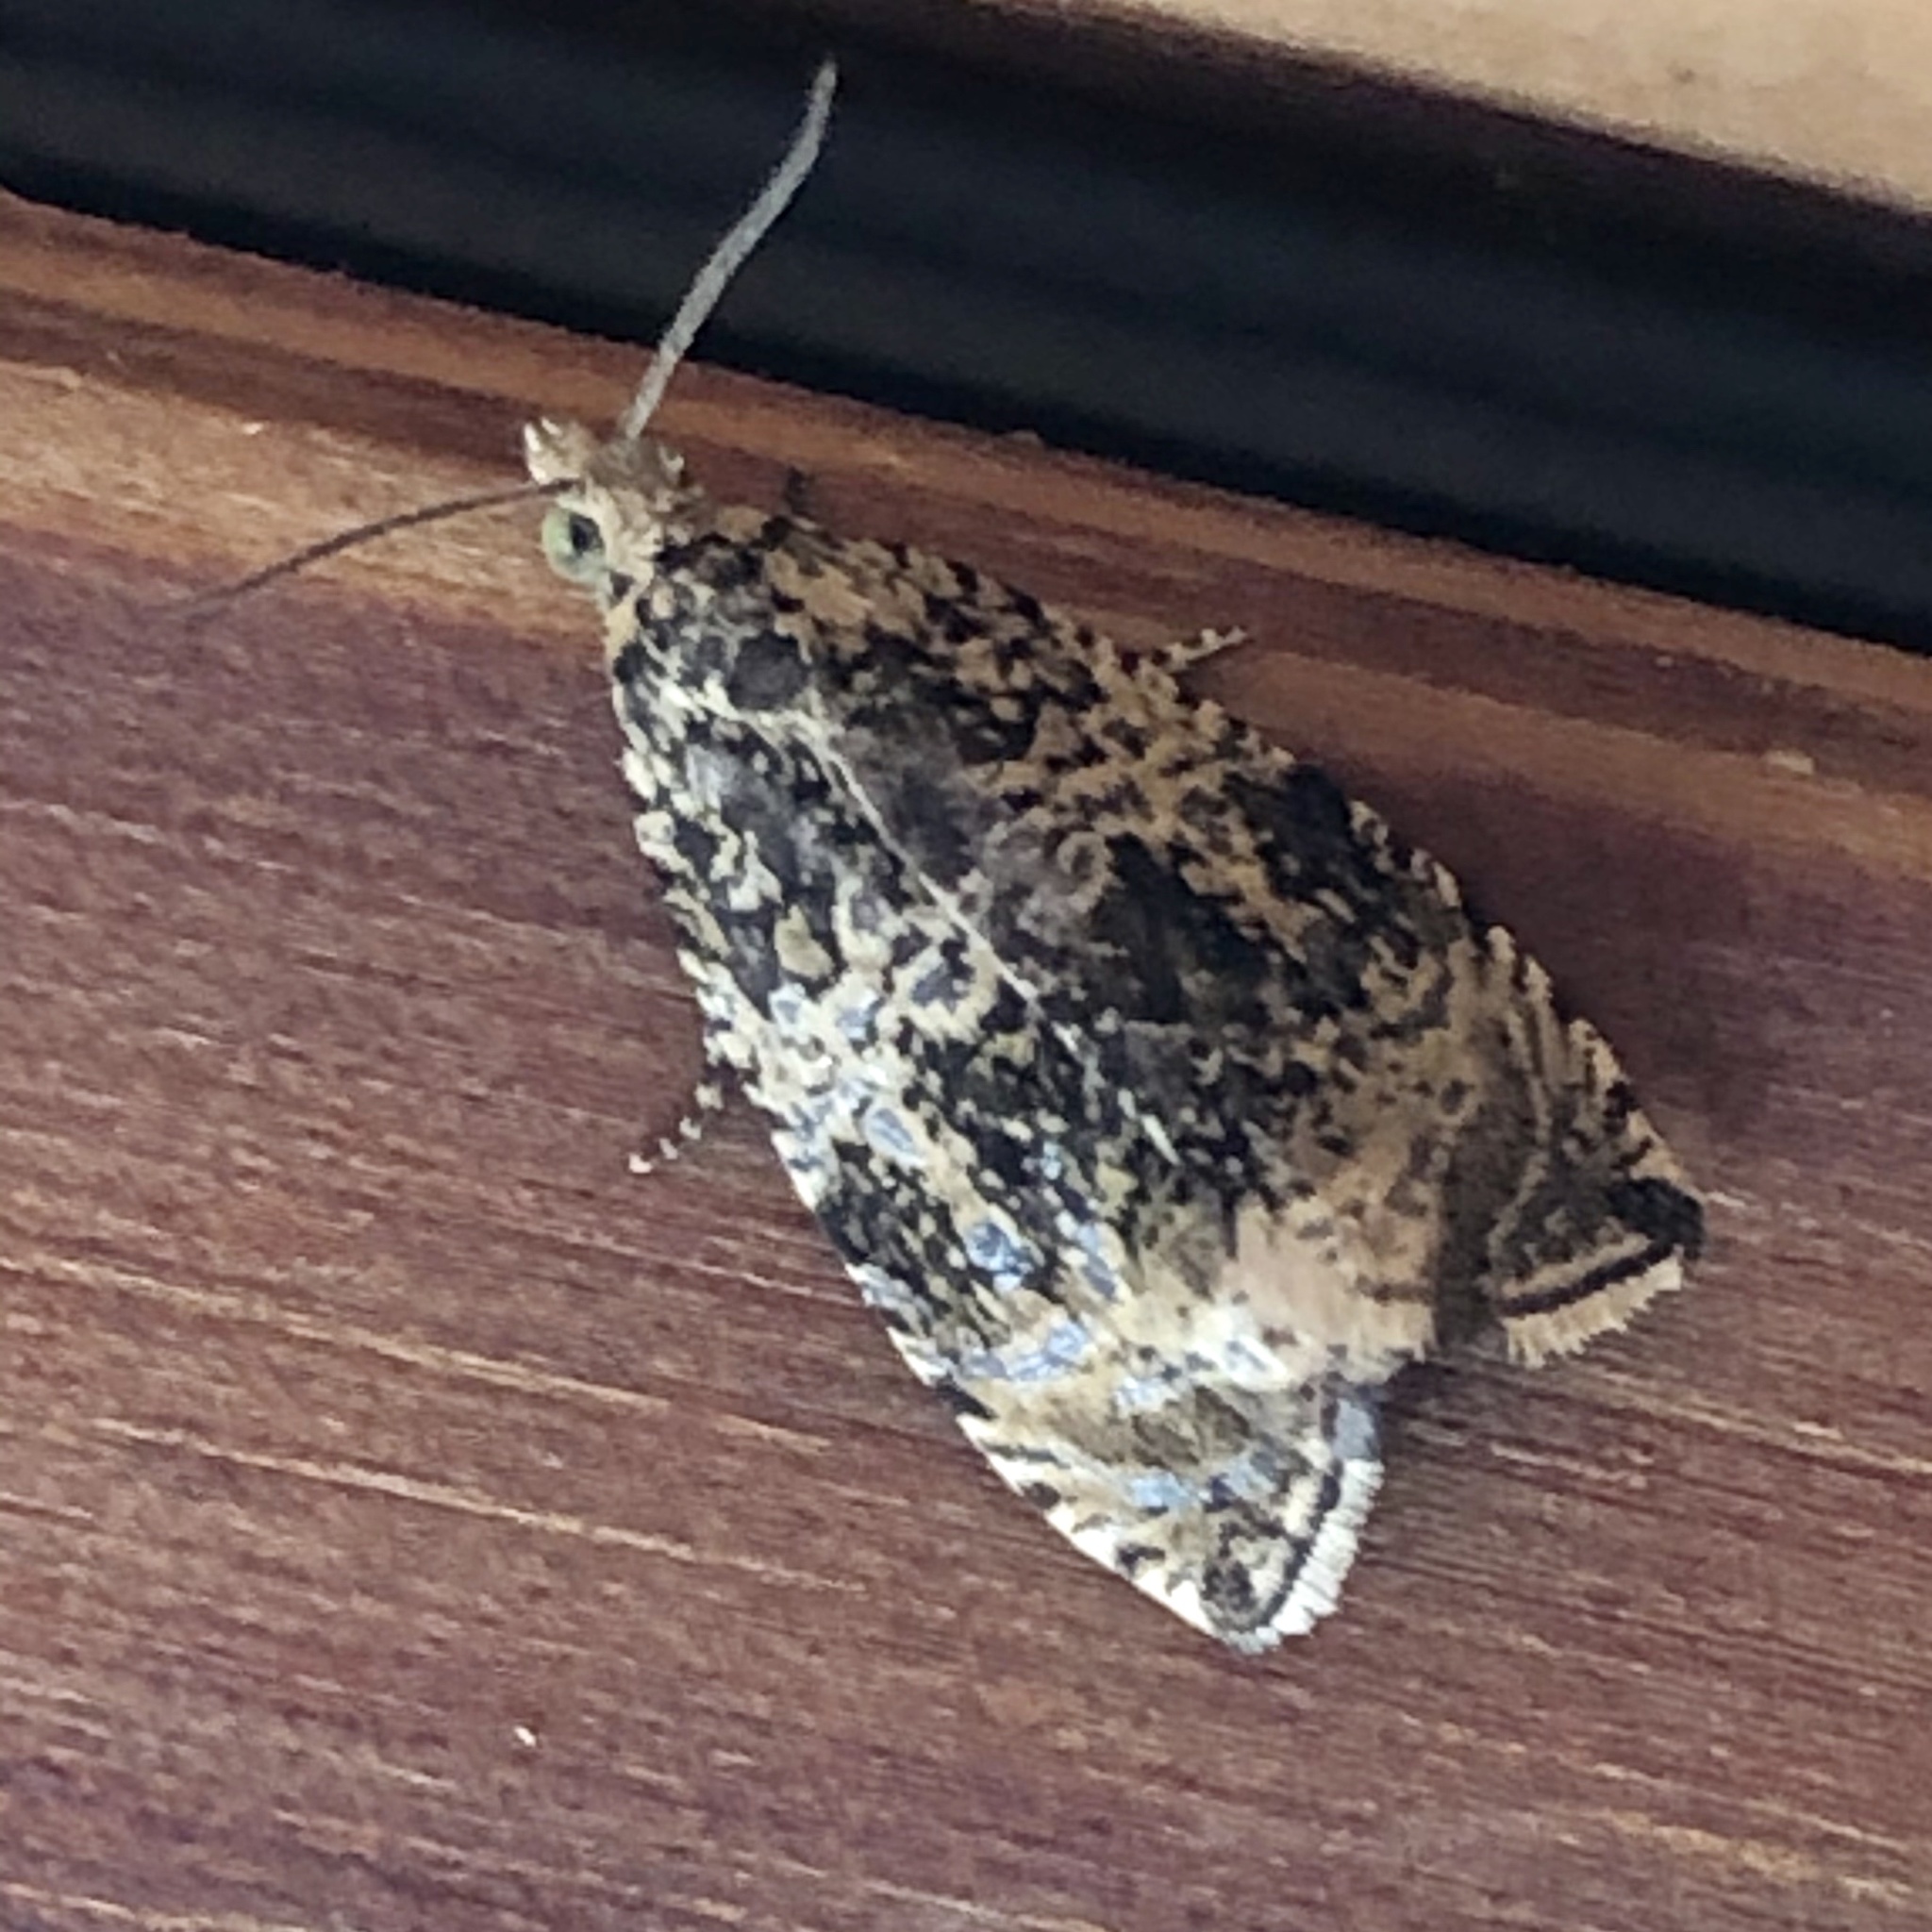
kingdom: Animalia
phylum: Arthropoda
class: Insecta
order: Lepidoptera
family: Tortricidae
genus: Syricoris
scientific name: Syricoris lacunana
